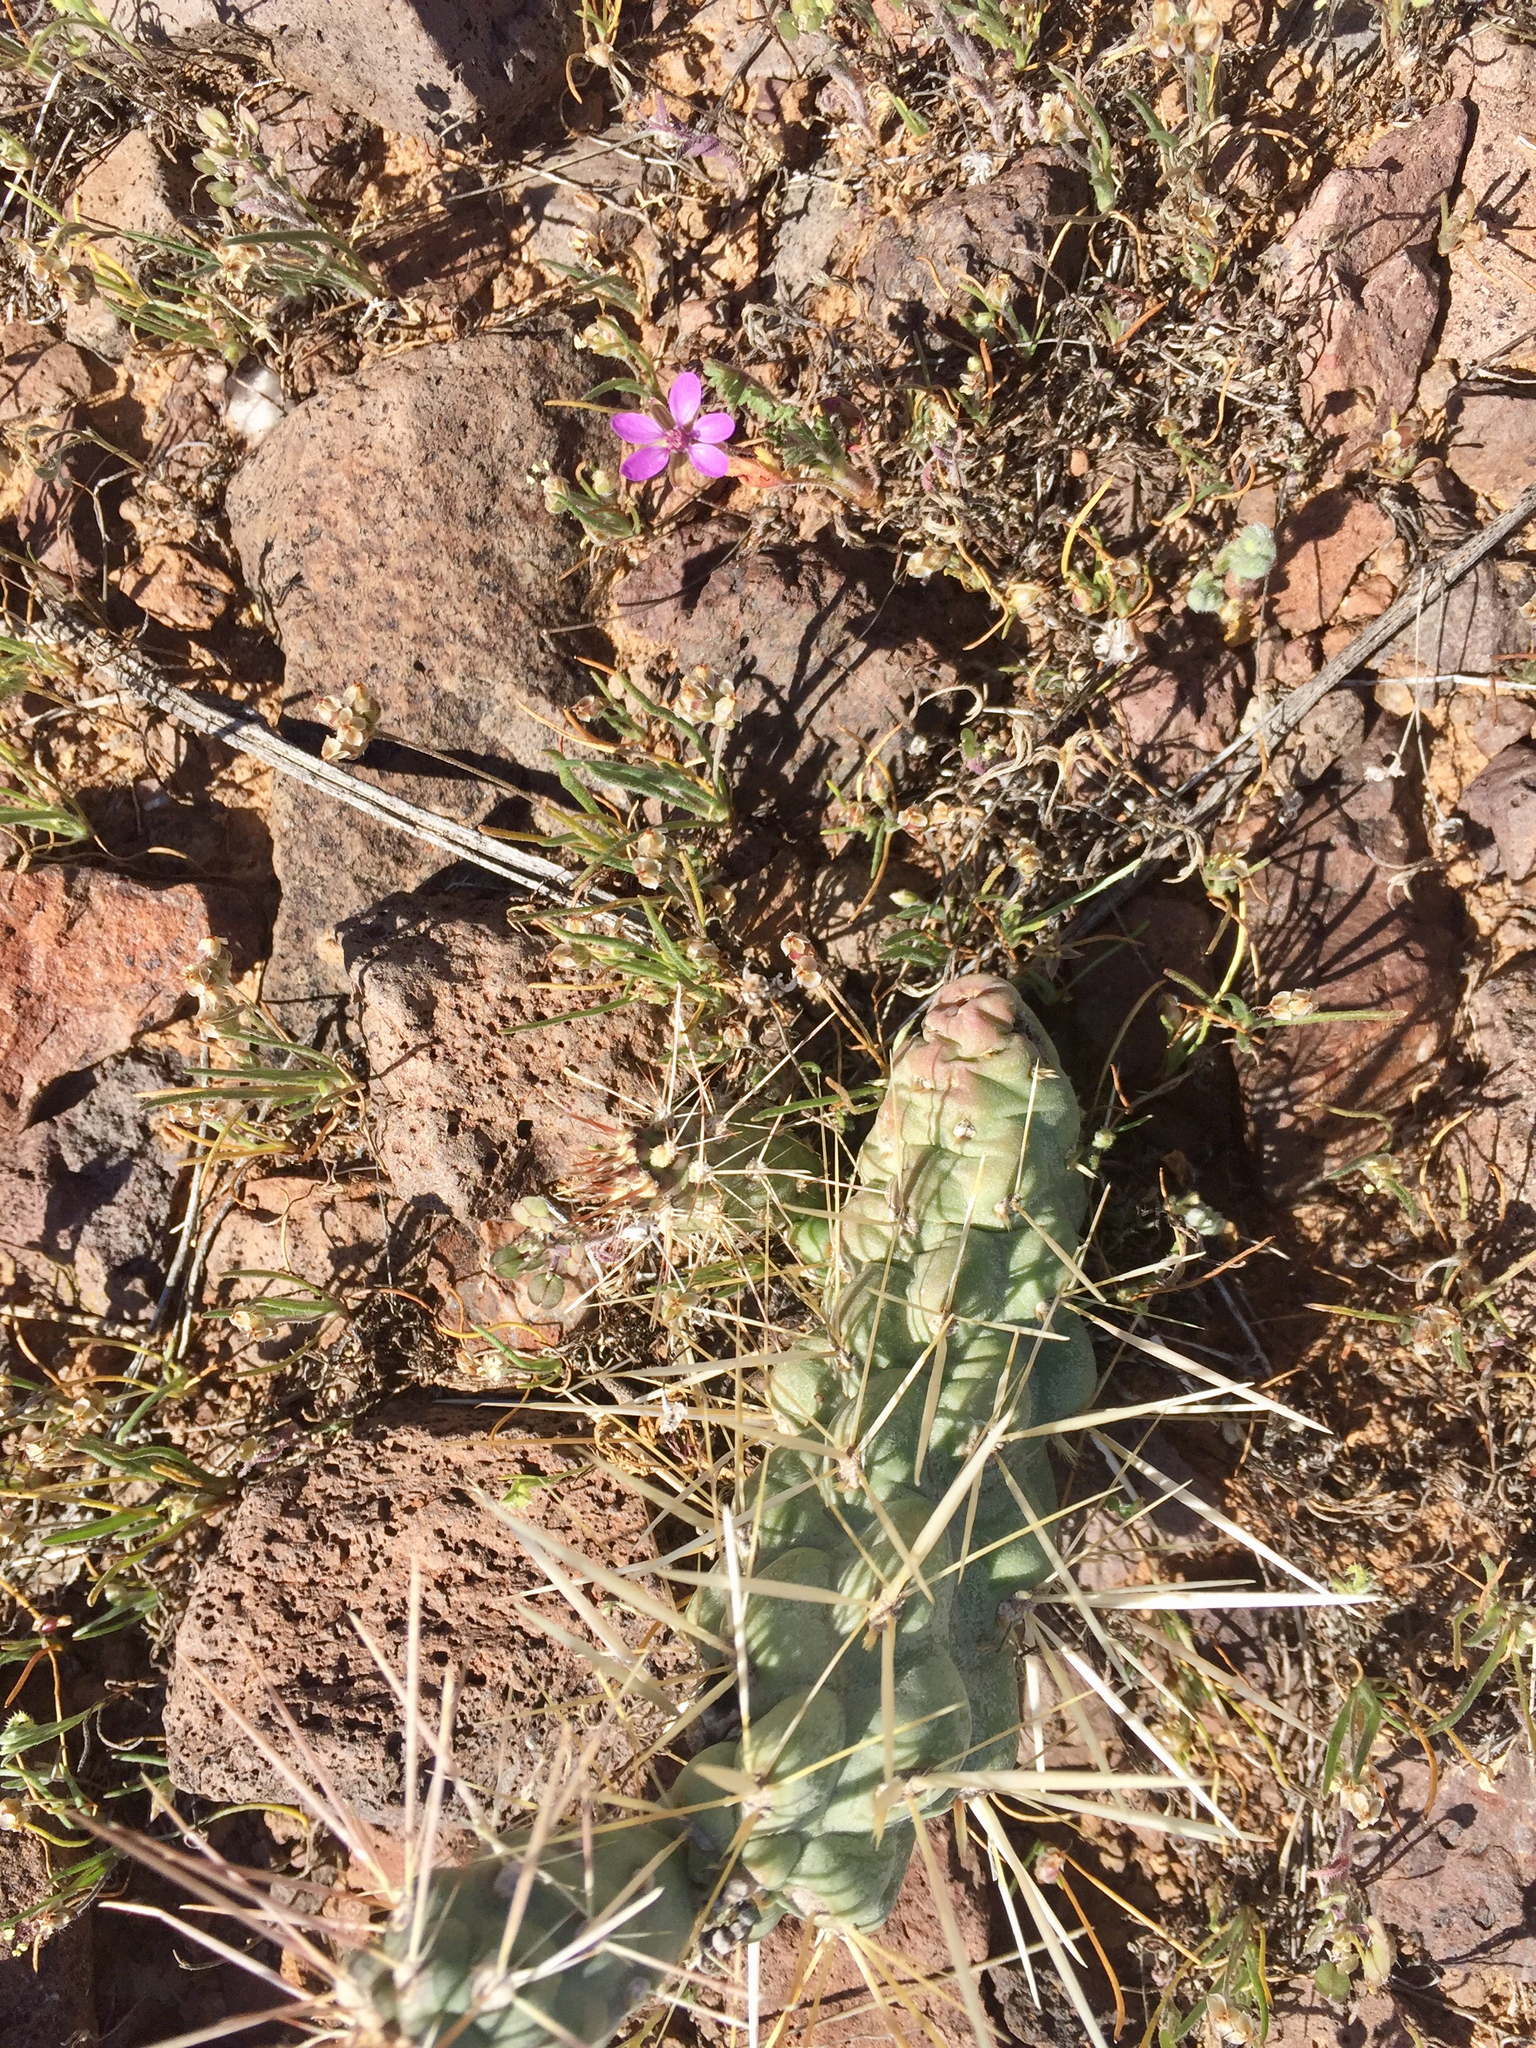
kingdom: Plantae
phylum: Tracheophyta
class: Magnoliopsida
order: Geraniales
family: Geraniaceae
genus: Erodium
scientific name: Erodium cicutarium
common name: Common stork's-bill
